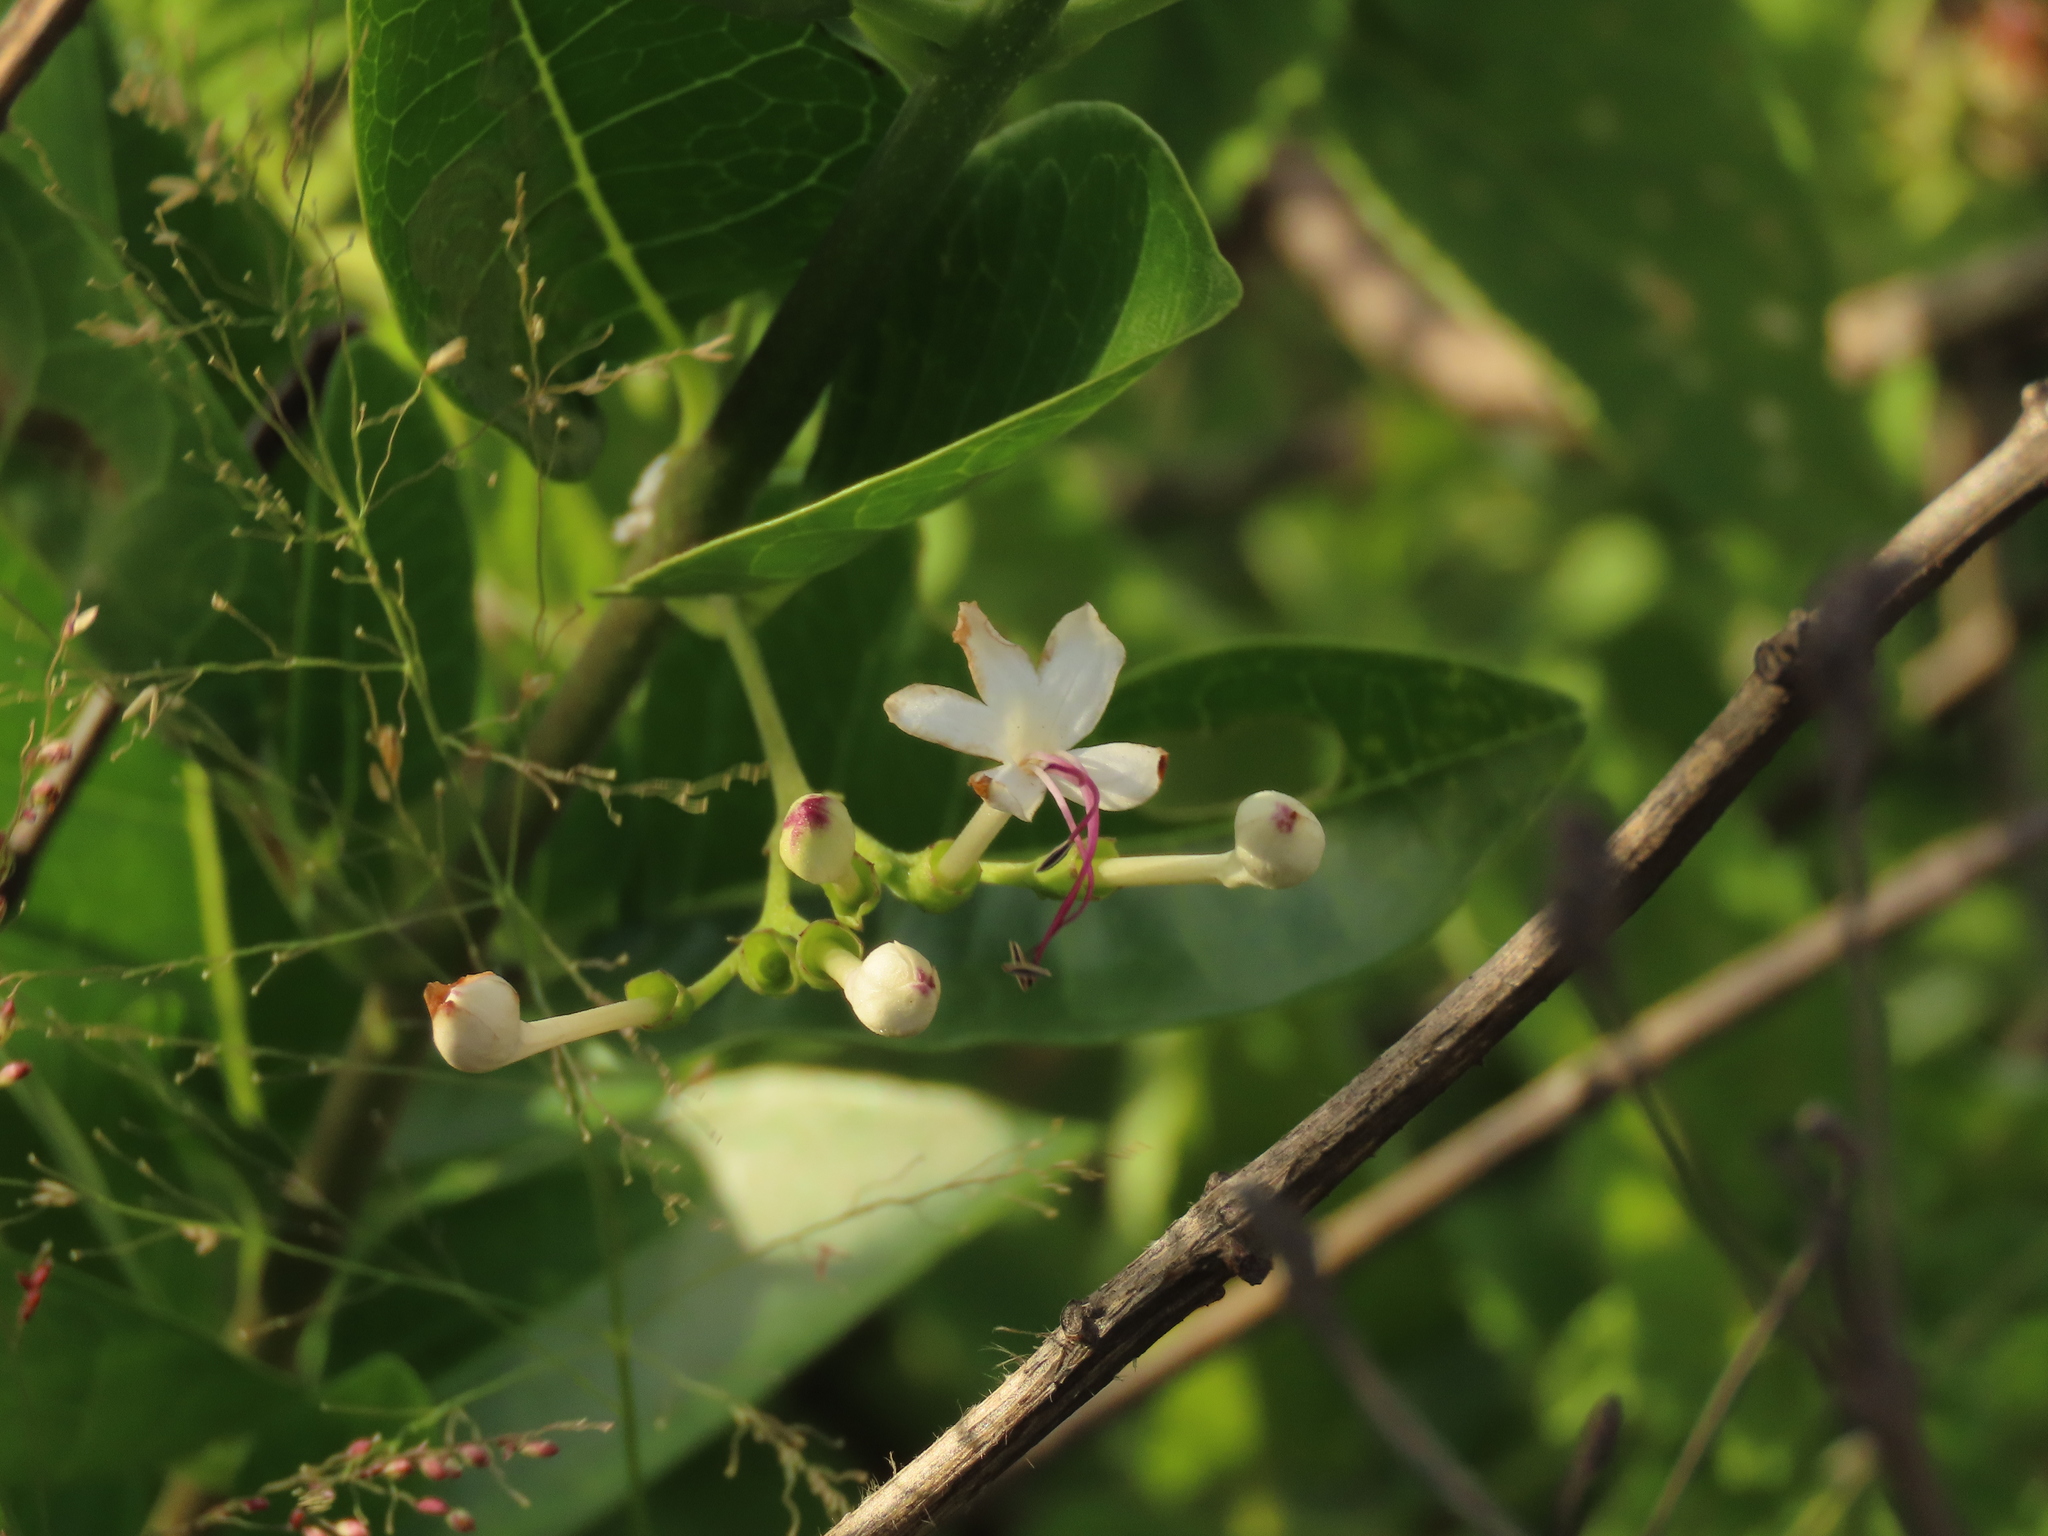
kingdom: Plantae
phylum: Tracheophyta
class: Magnoliopsida
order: Lamiales
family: Lamiaceae
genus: Volkameria
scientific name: Volkameria inermis
